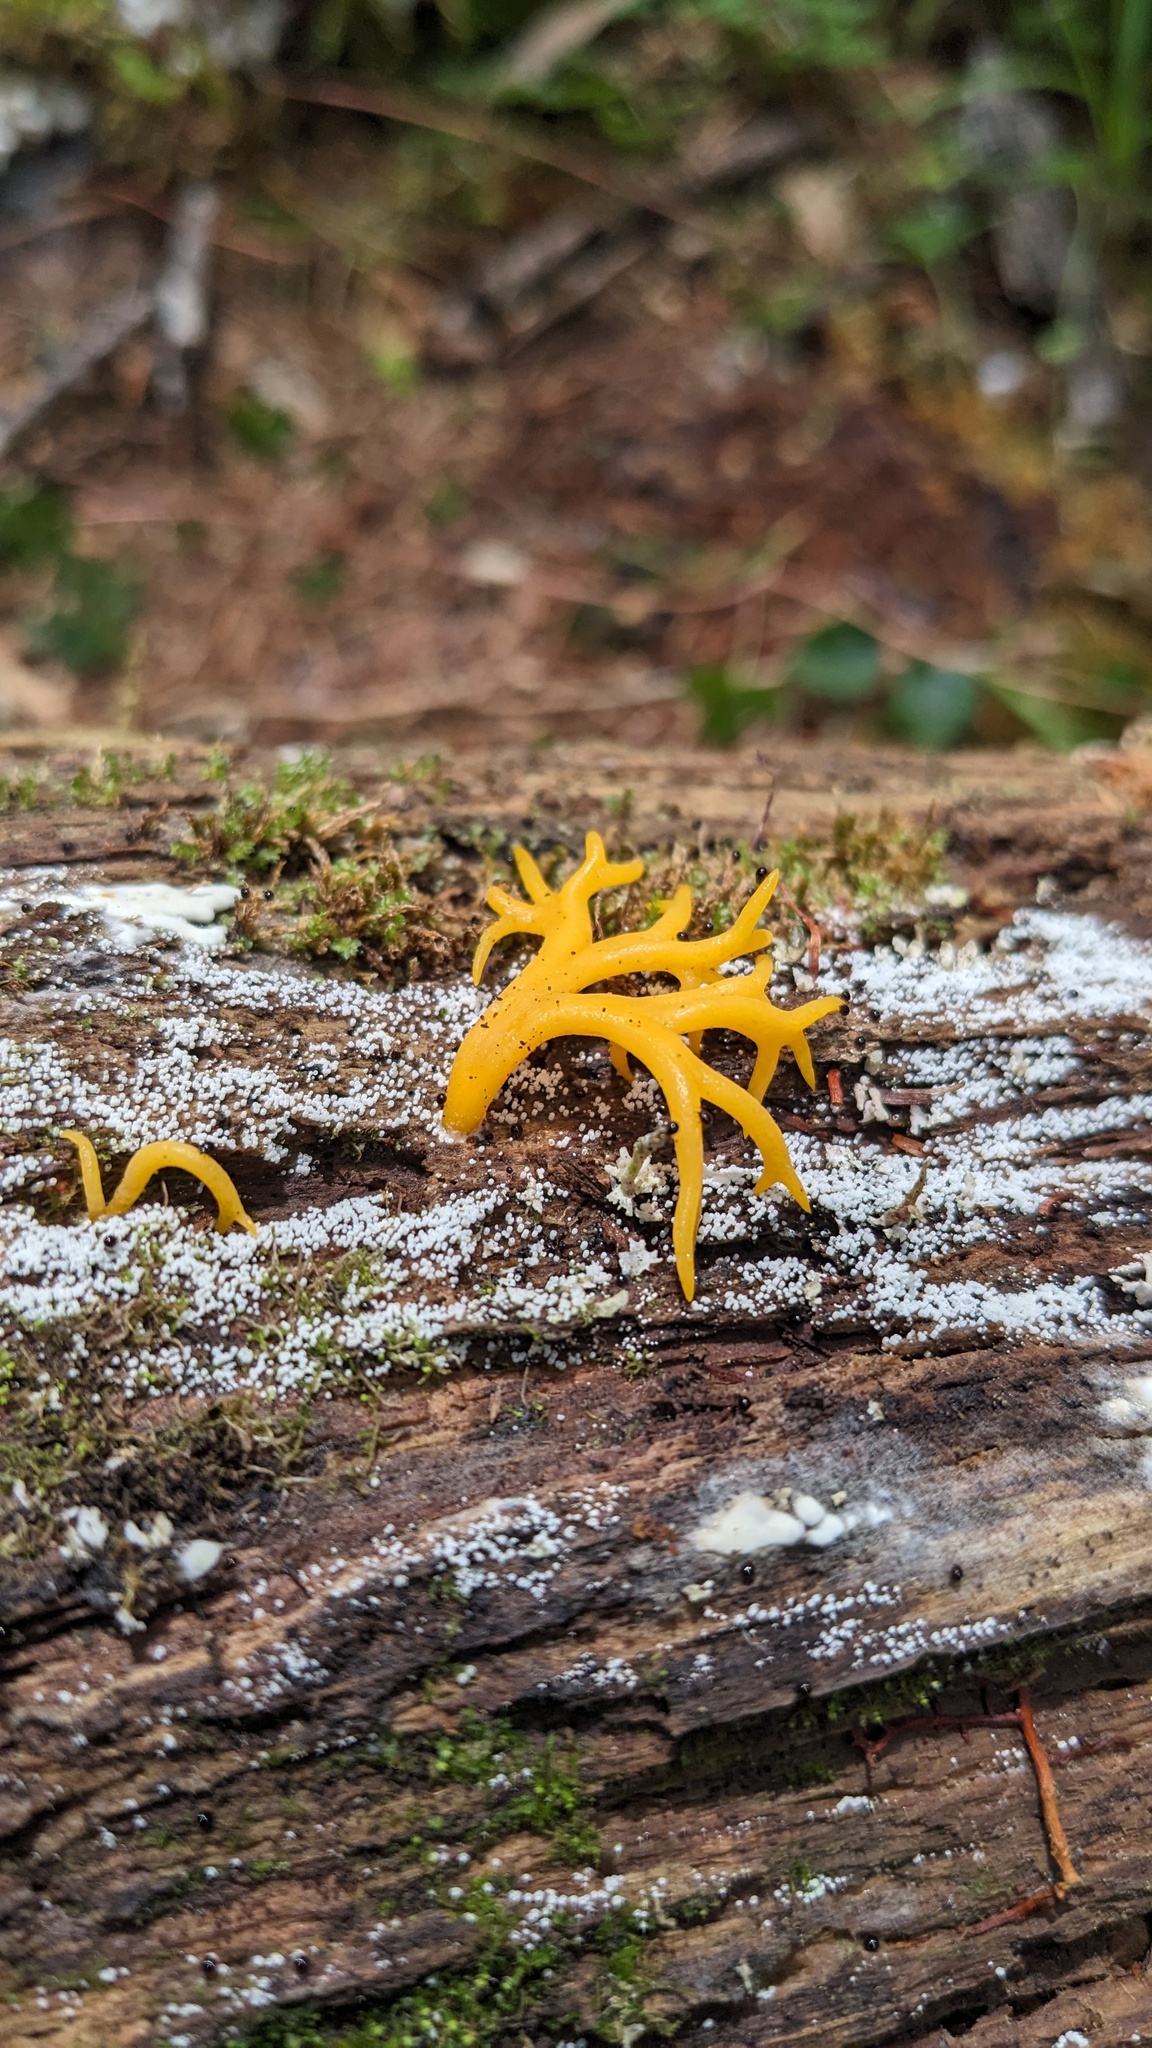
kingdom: Fungi
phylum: Basidiomycota
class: Dacrymycetes
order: Dacrymycetales
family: Dacrymycetaceae
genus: Calocera
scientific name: Calocera viscosa
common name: Yellow stagshorn
